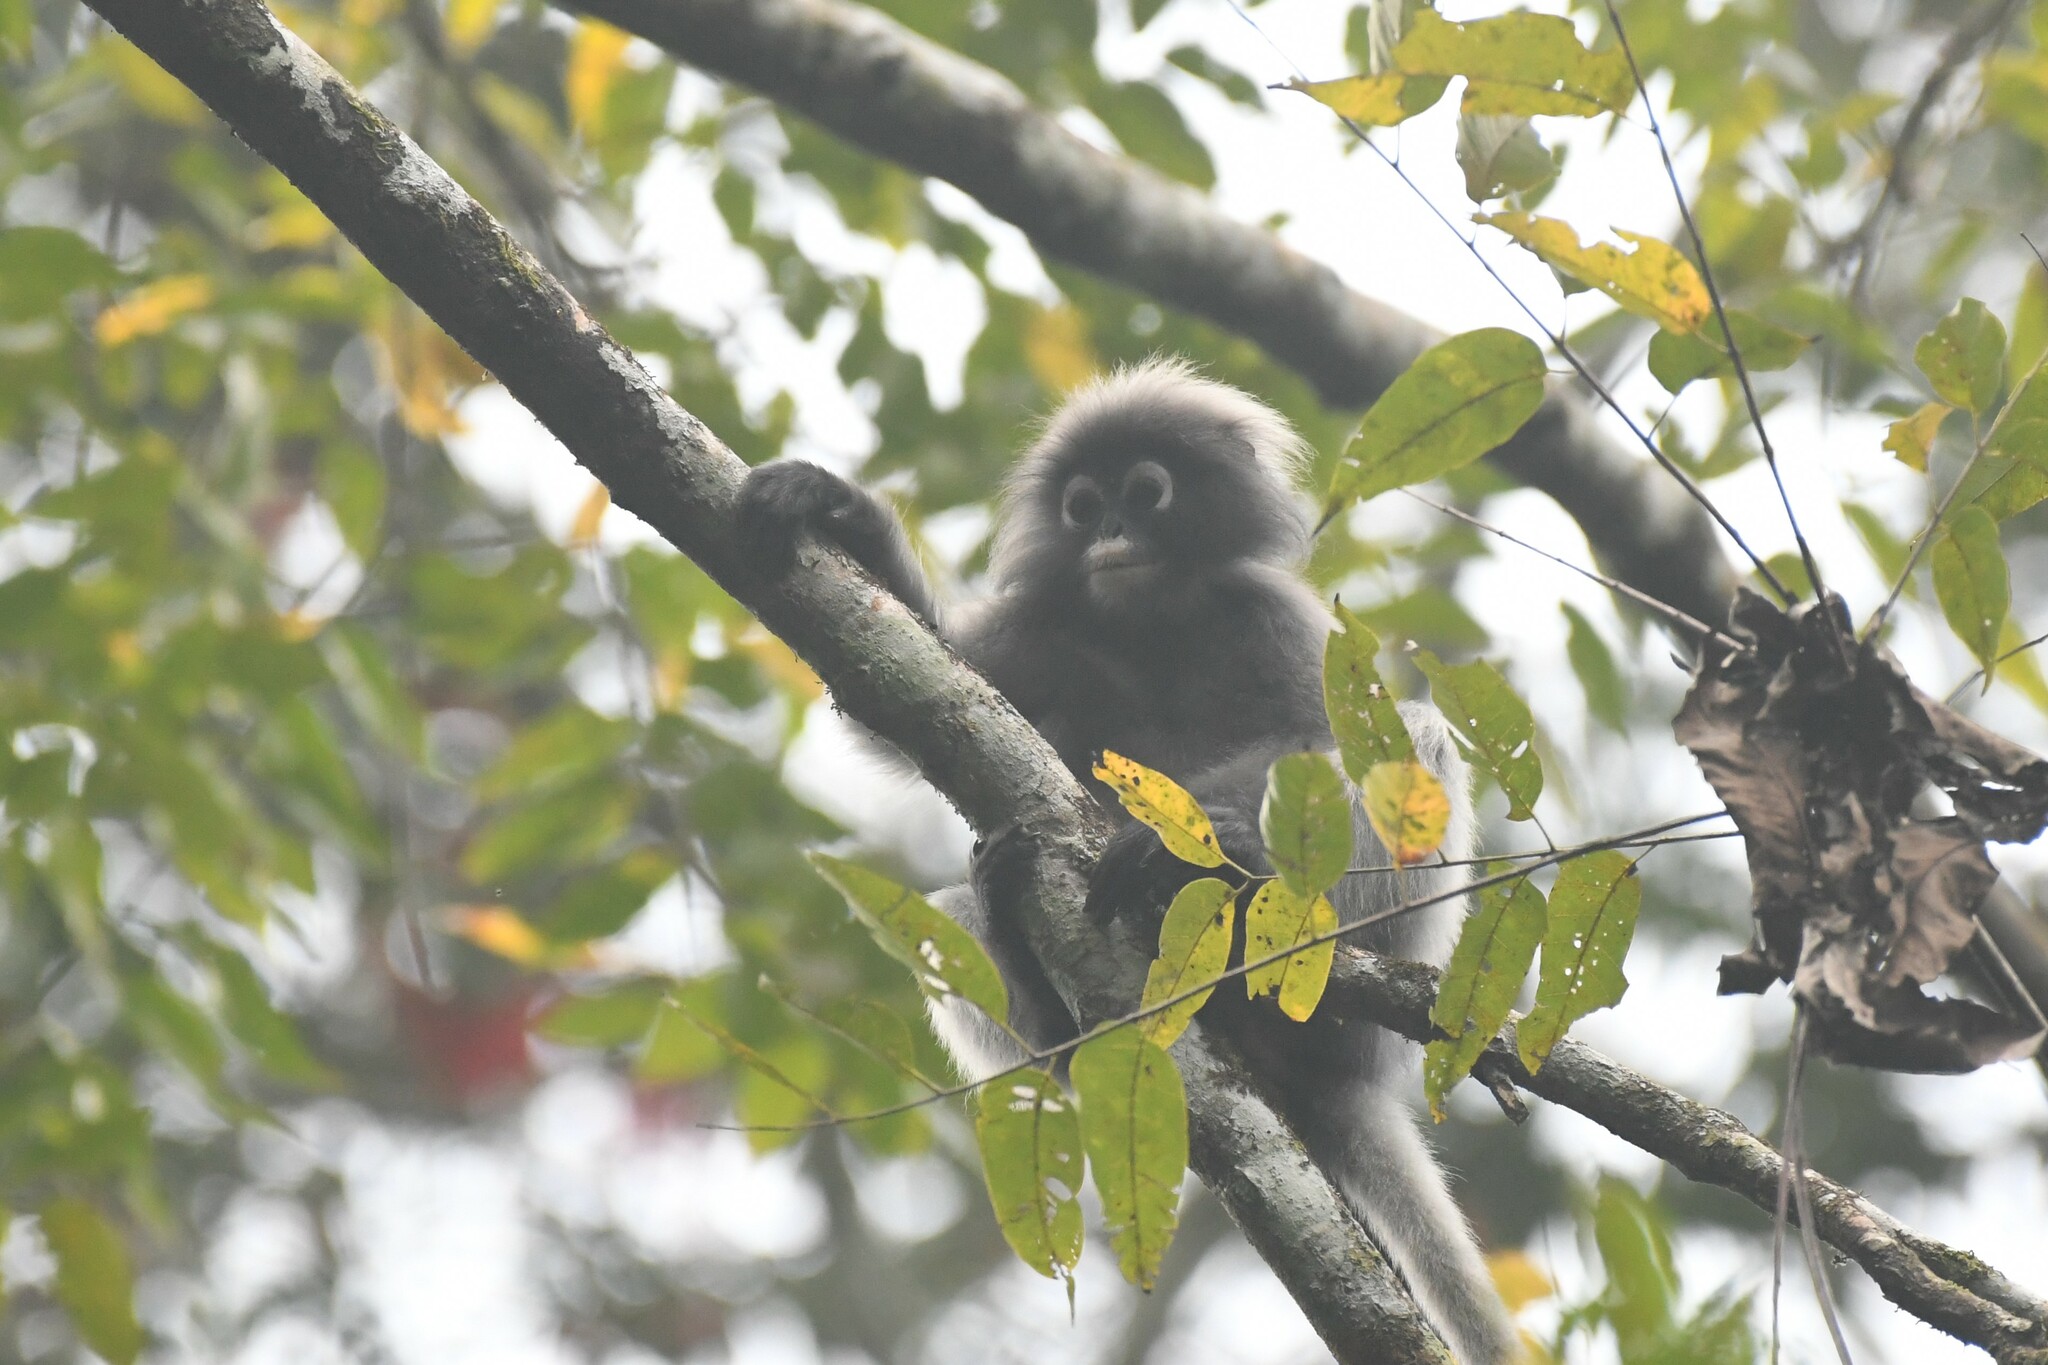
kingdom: Animalia
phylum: Chordata
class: Mammalia
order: Primates
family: Cercopithecidae
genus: Trachypithecus
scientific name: Trachypithecus obscurus
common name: Dusky leaf-monkey
